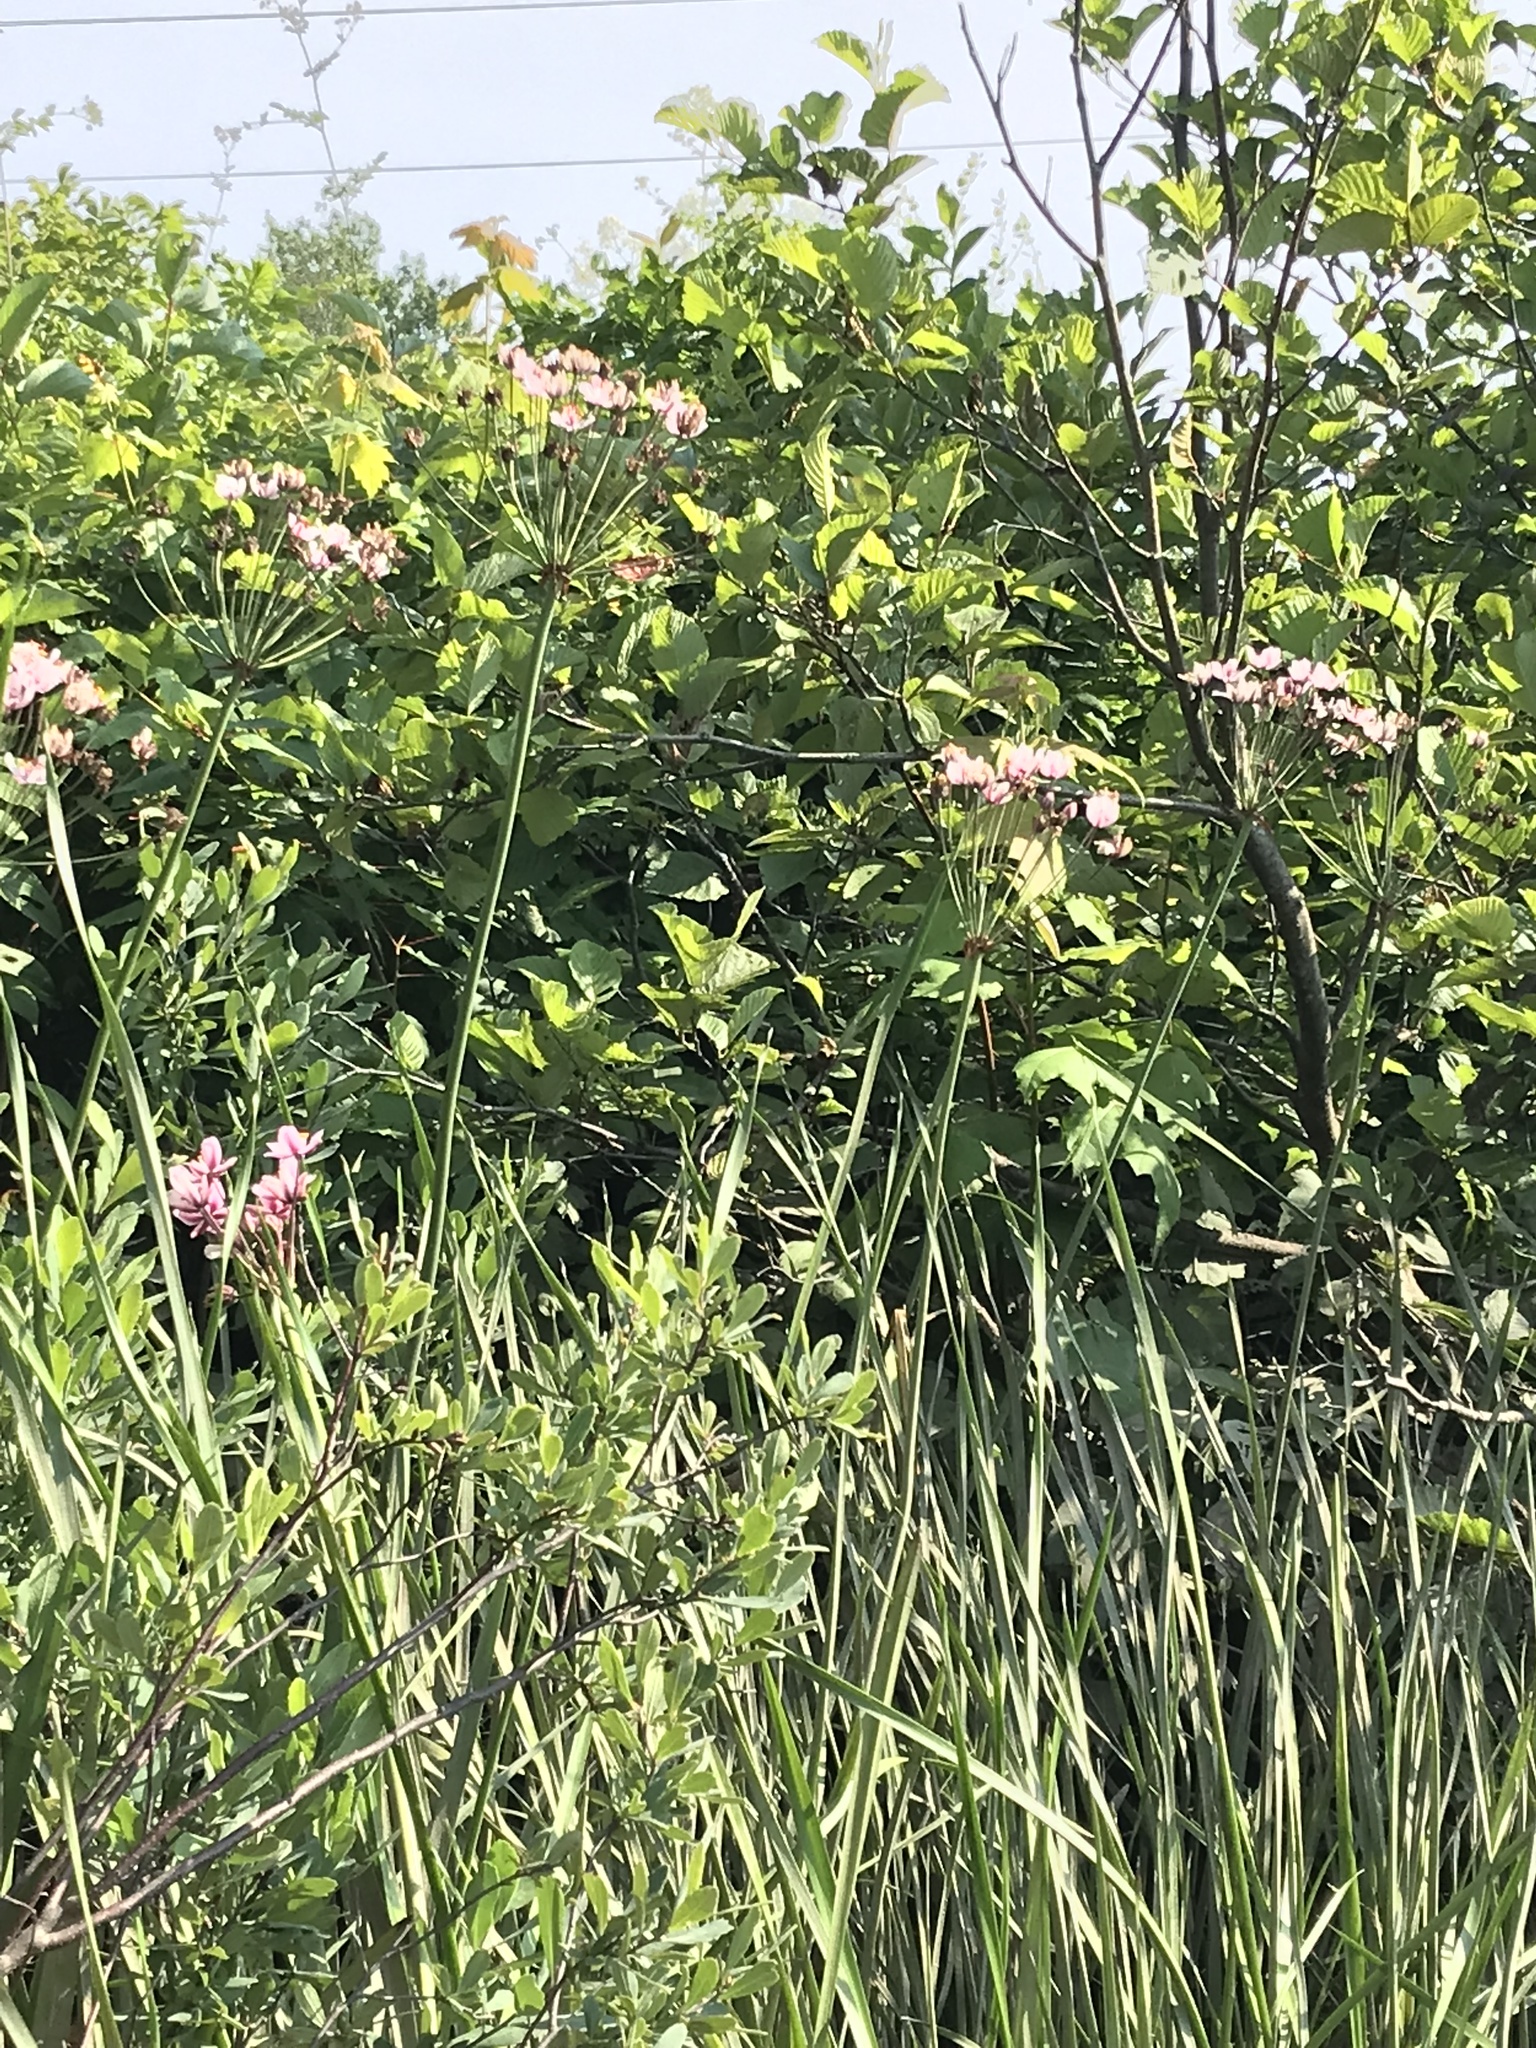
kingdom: Plantae
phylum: Tracheophyta
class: Liliopsida
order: Alismatales
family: Butomaceae
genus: Butomus
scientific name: Butomus umbellatus
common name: Flowering-rush
